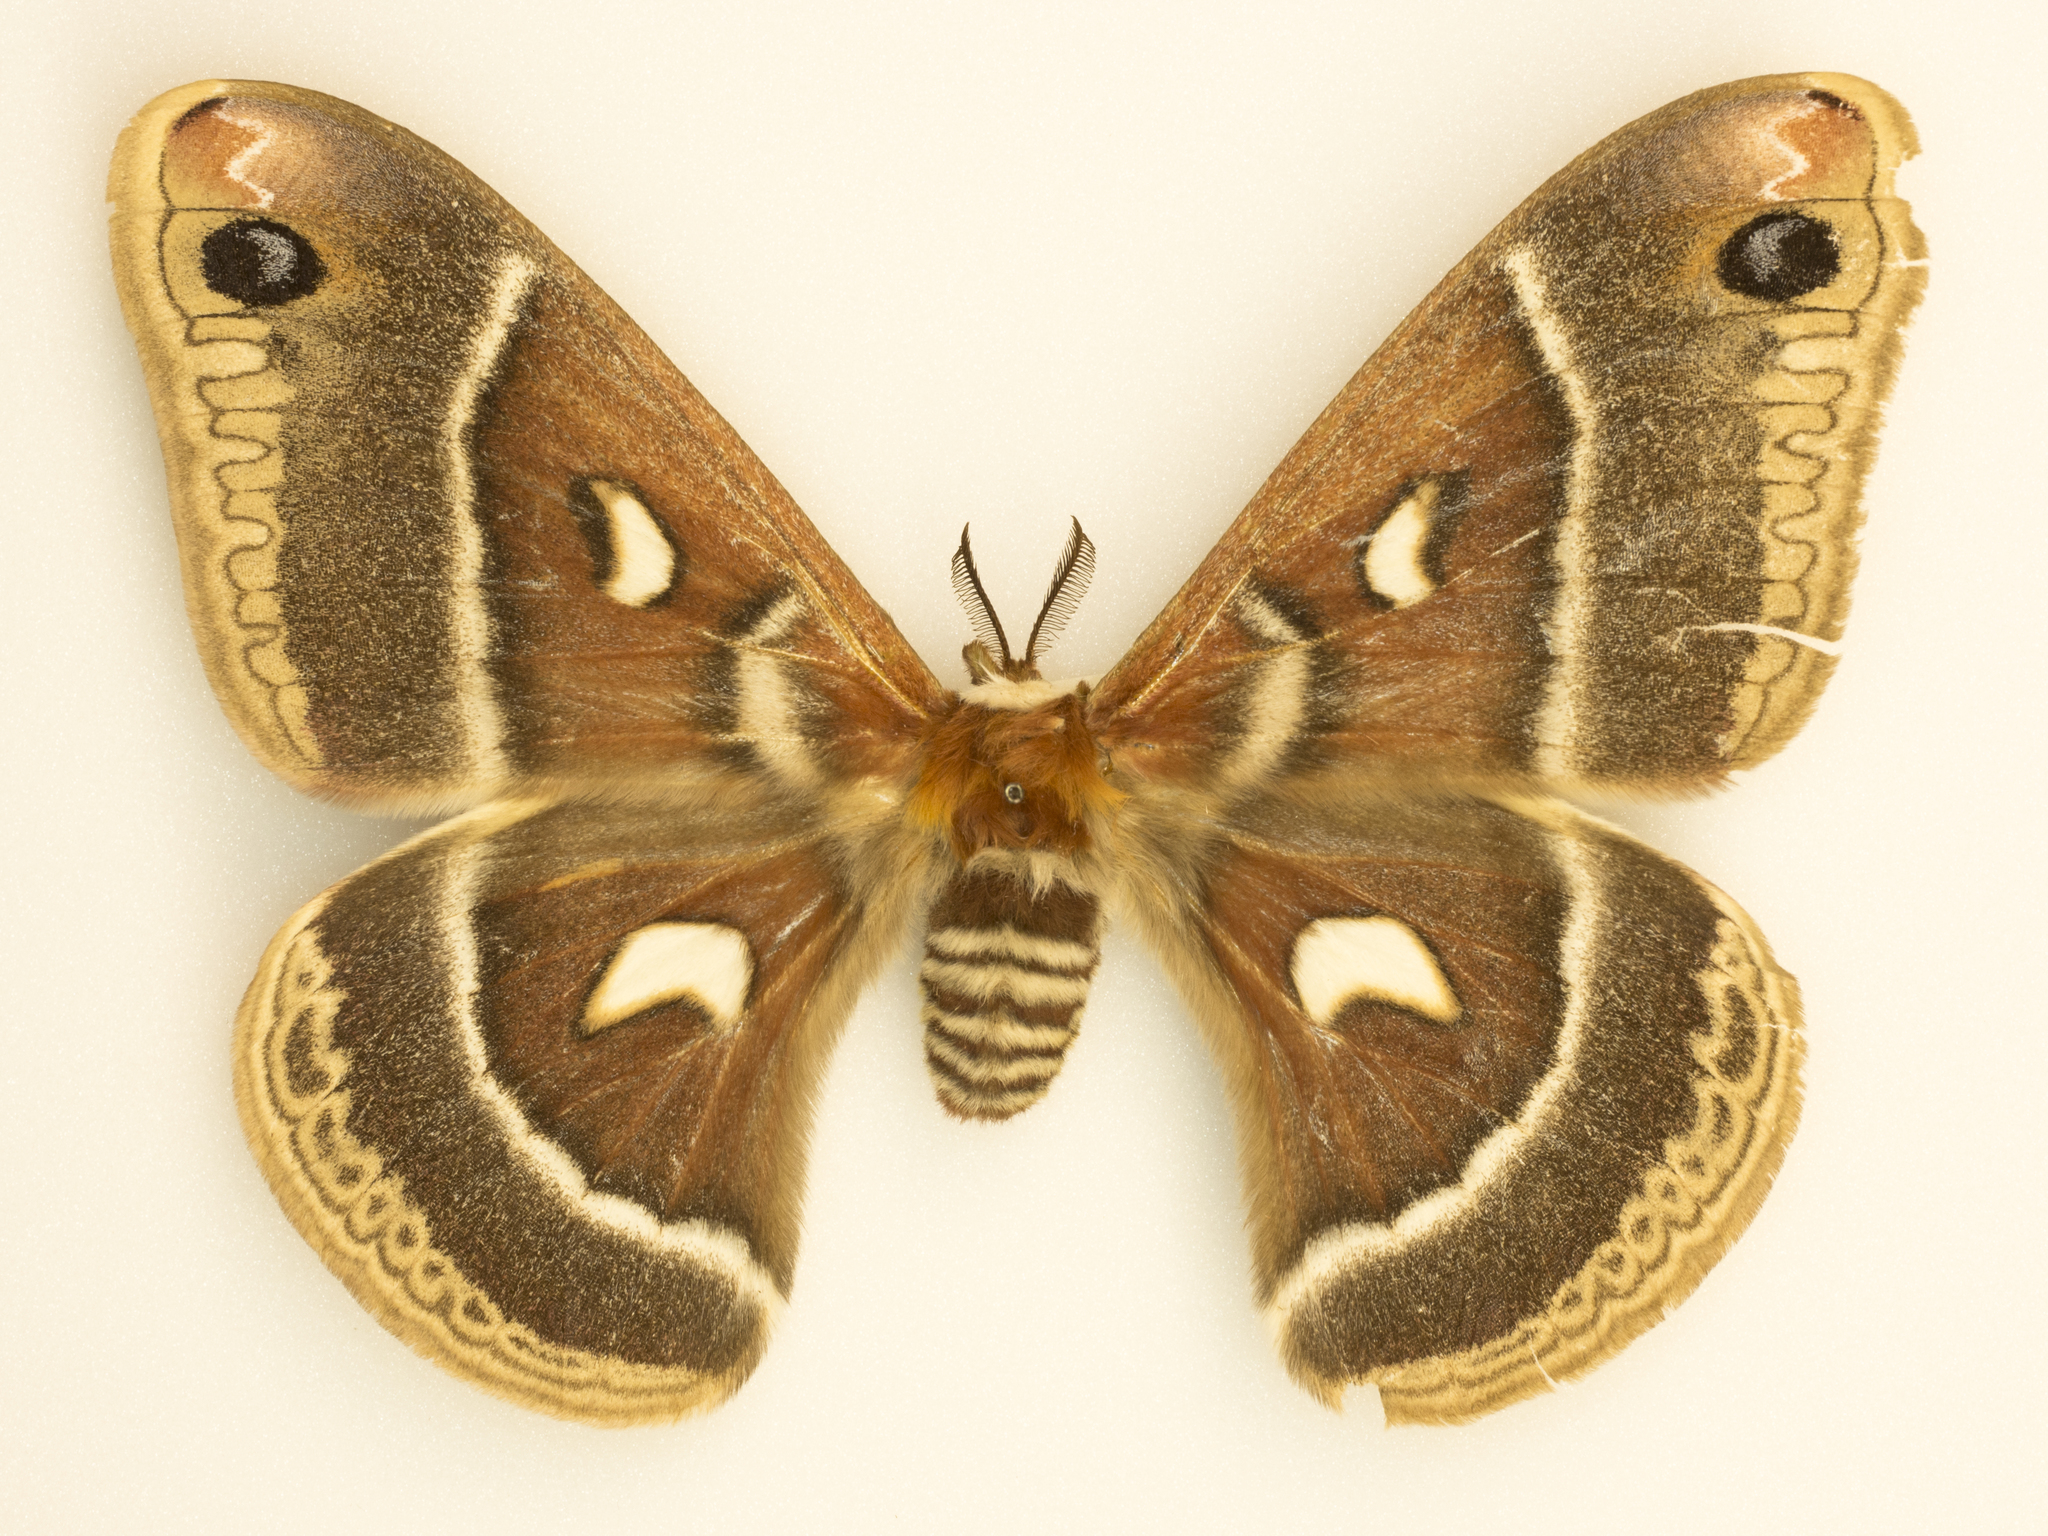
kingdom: Animalia
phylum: Arthropoda
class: Insecta
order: Lepidoptera
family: Saturniidae
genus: Hyalophora
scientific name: Hyalophora gloveri
